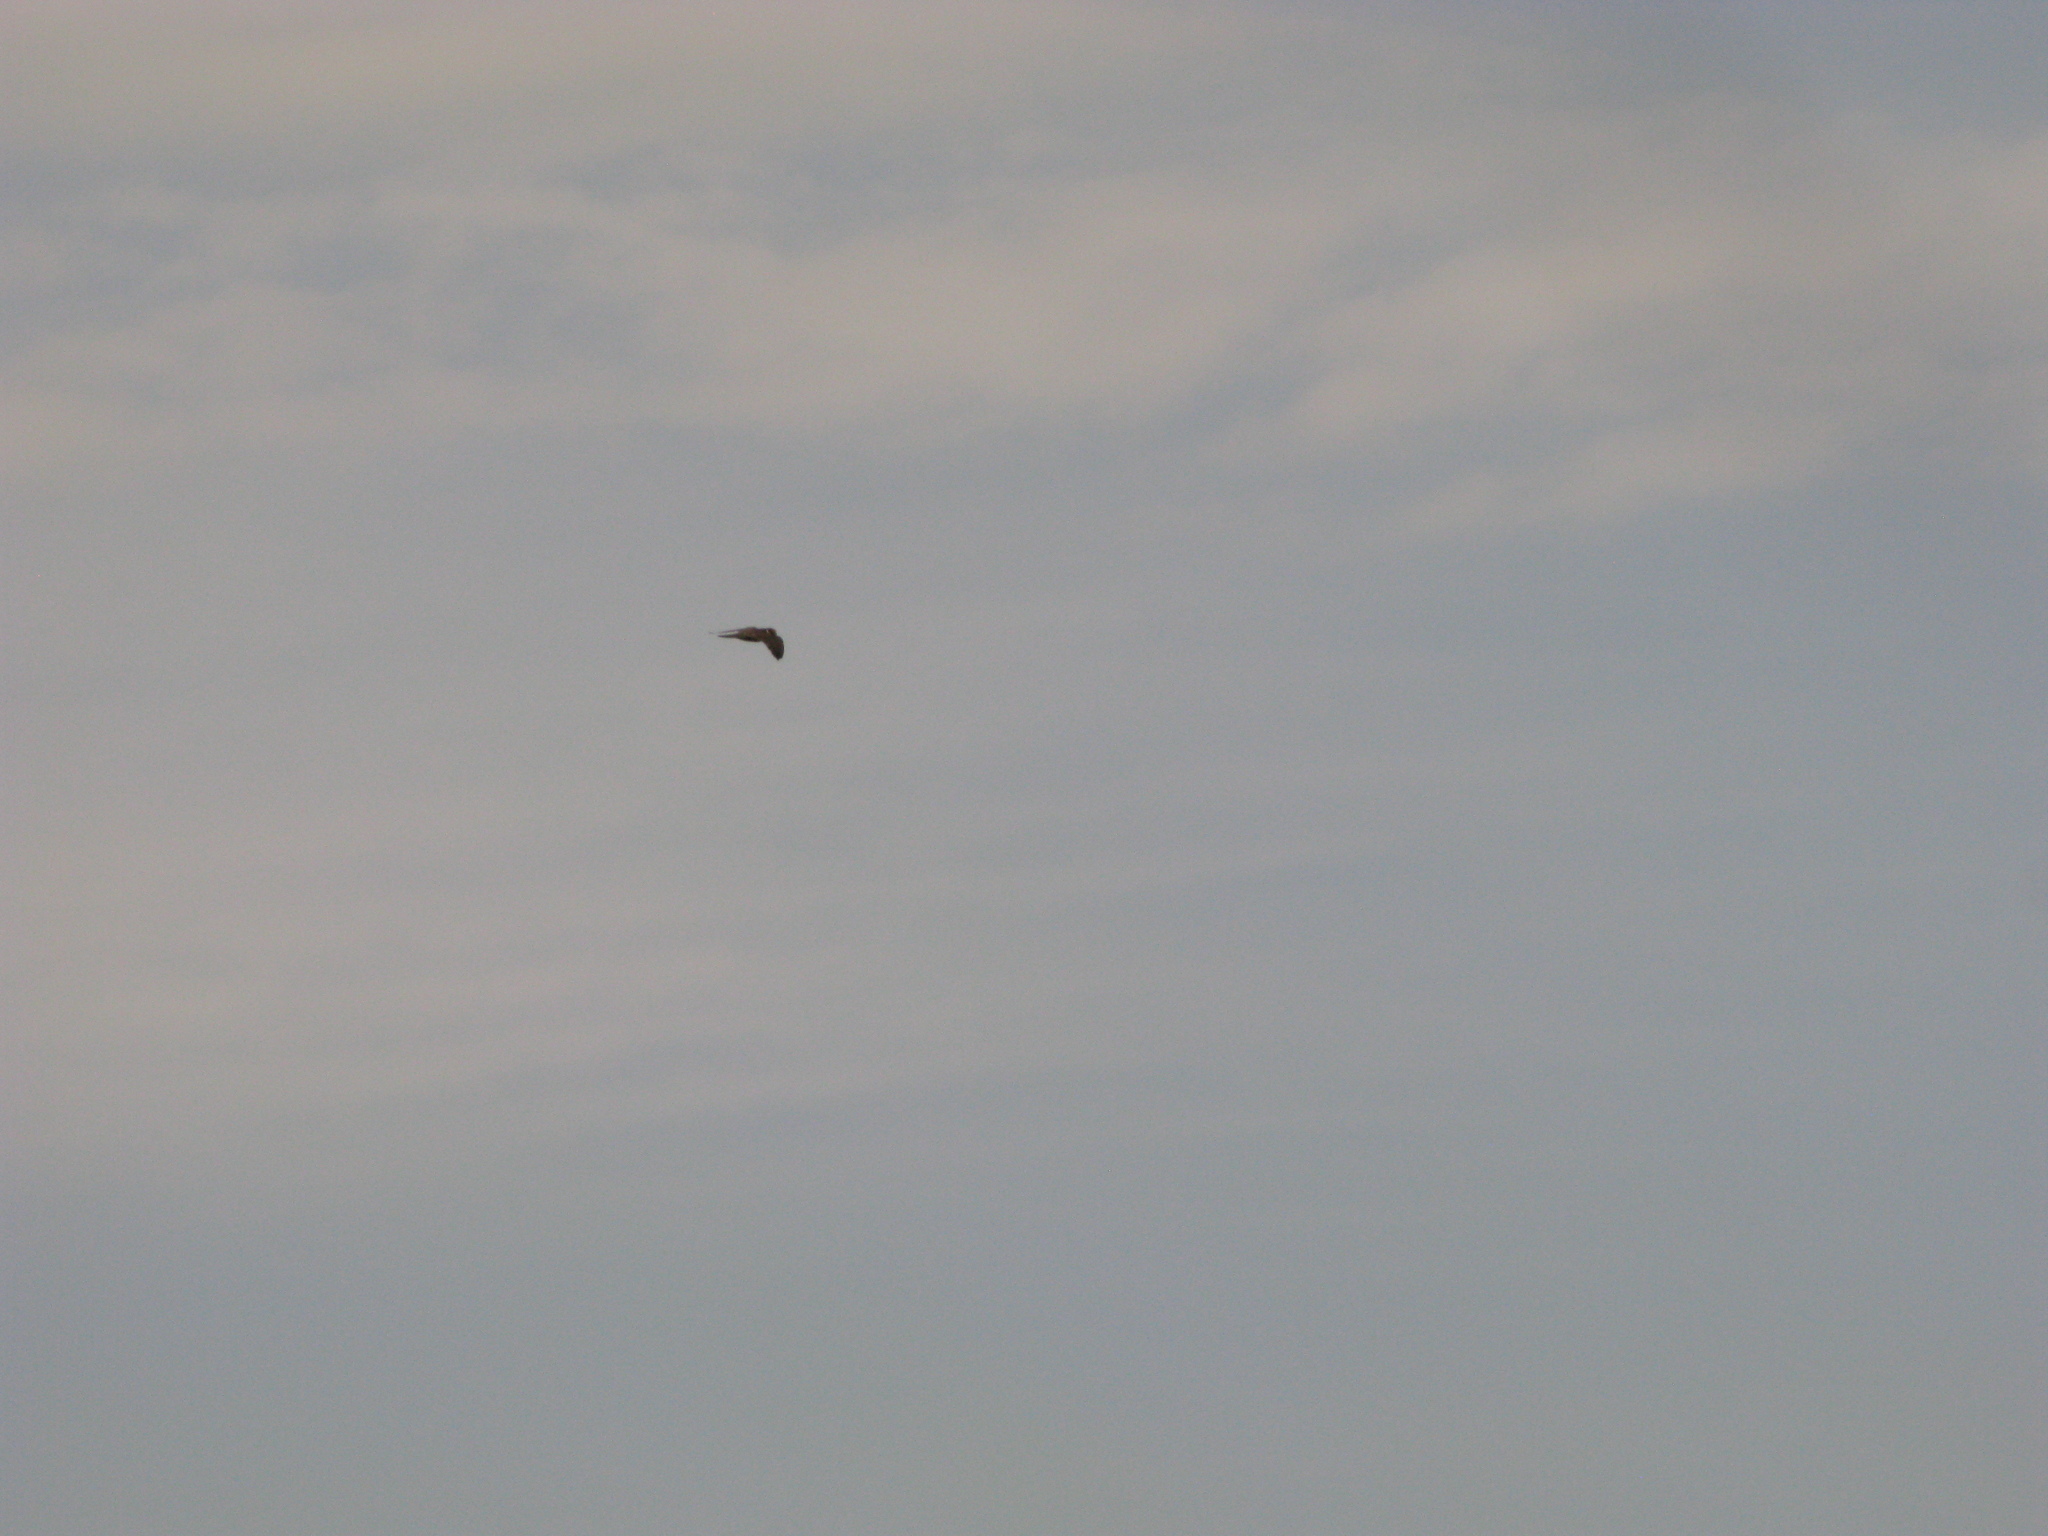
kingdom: Animalia
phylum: Chordata
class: Aves
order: Falconiformes
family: Falconidae
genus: Falco
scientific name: Falco subbuteo
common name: Eurasian hobby
